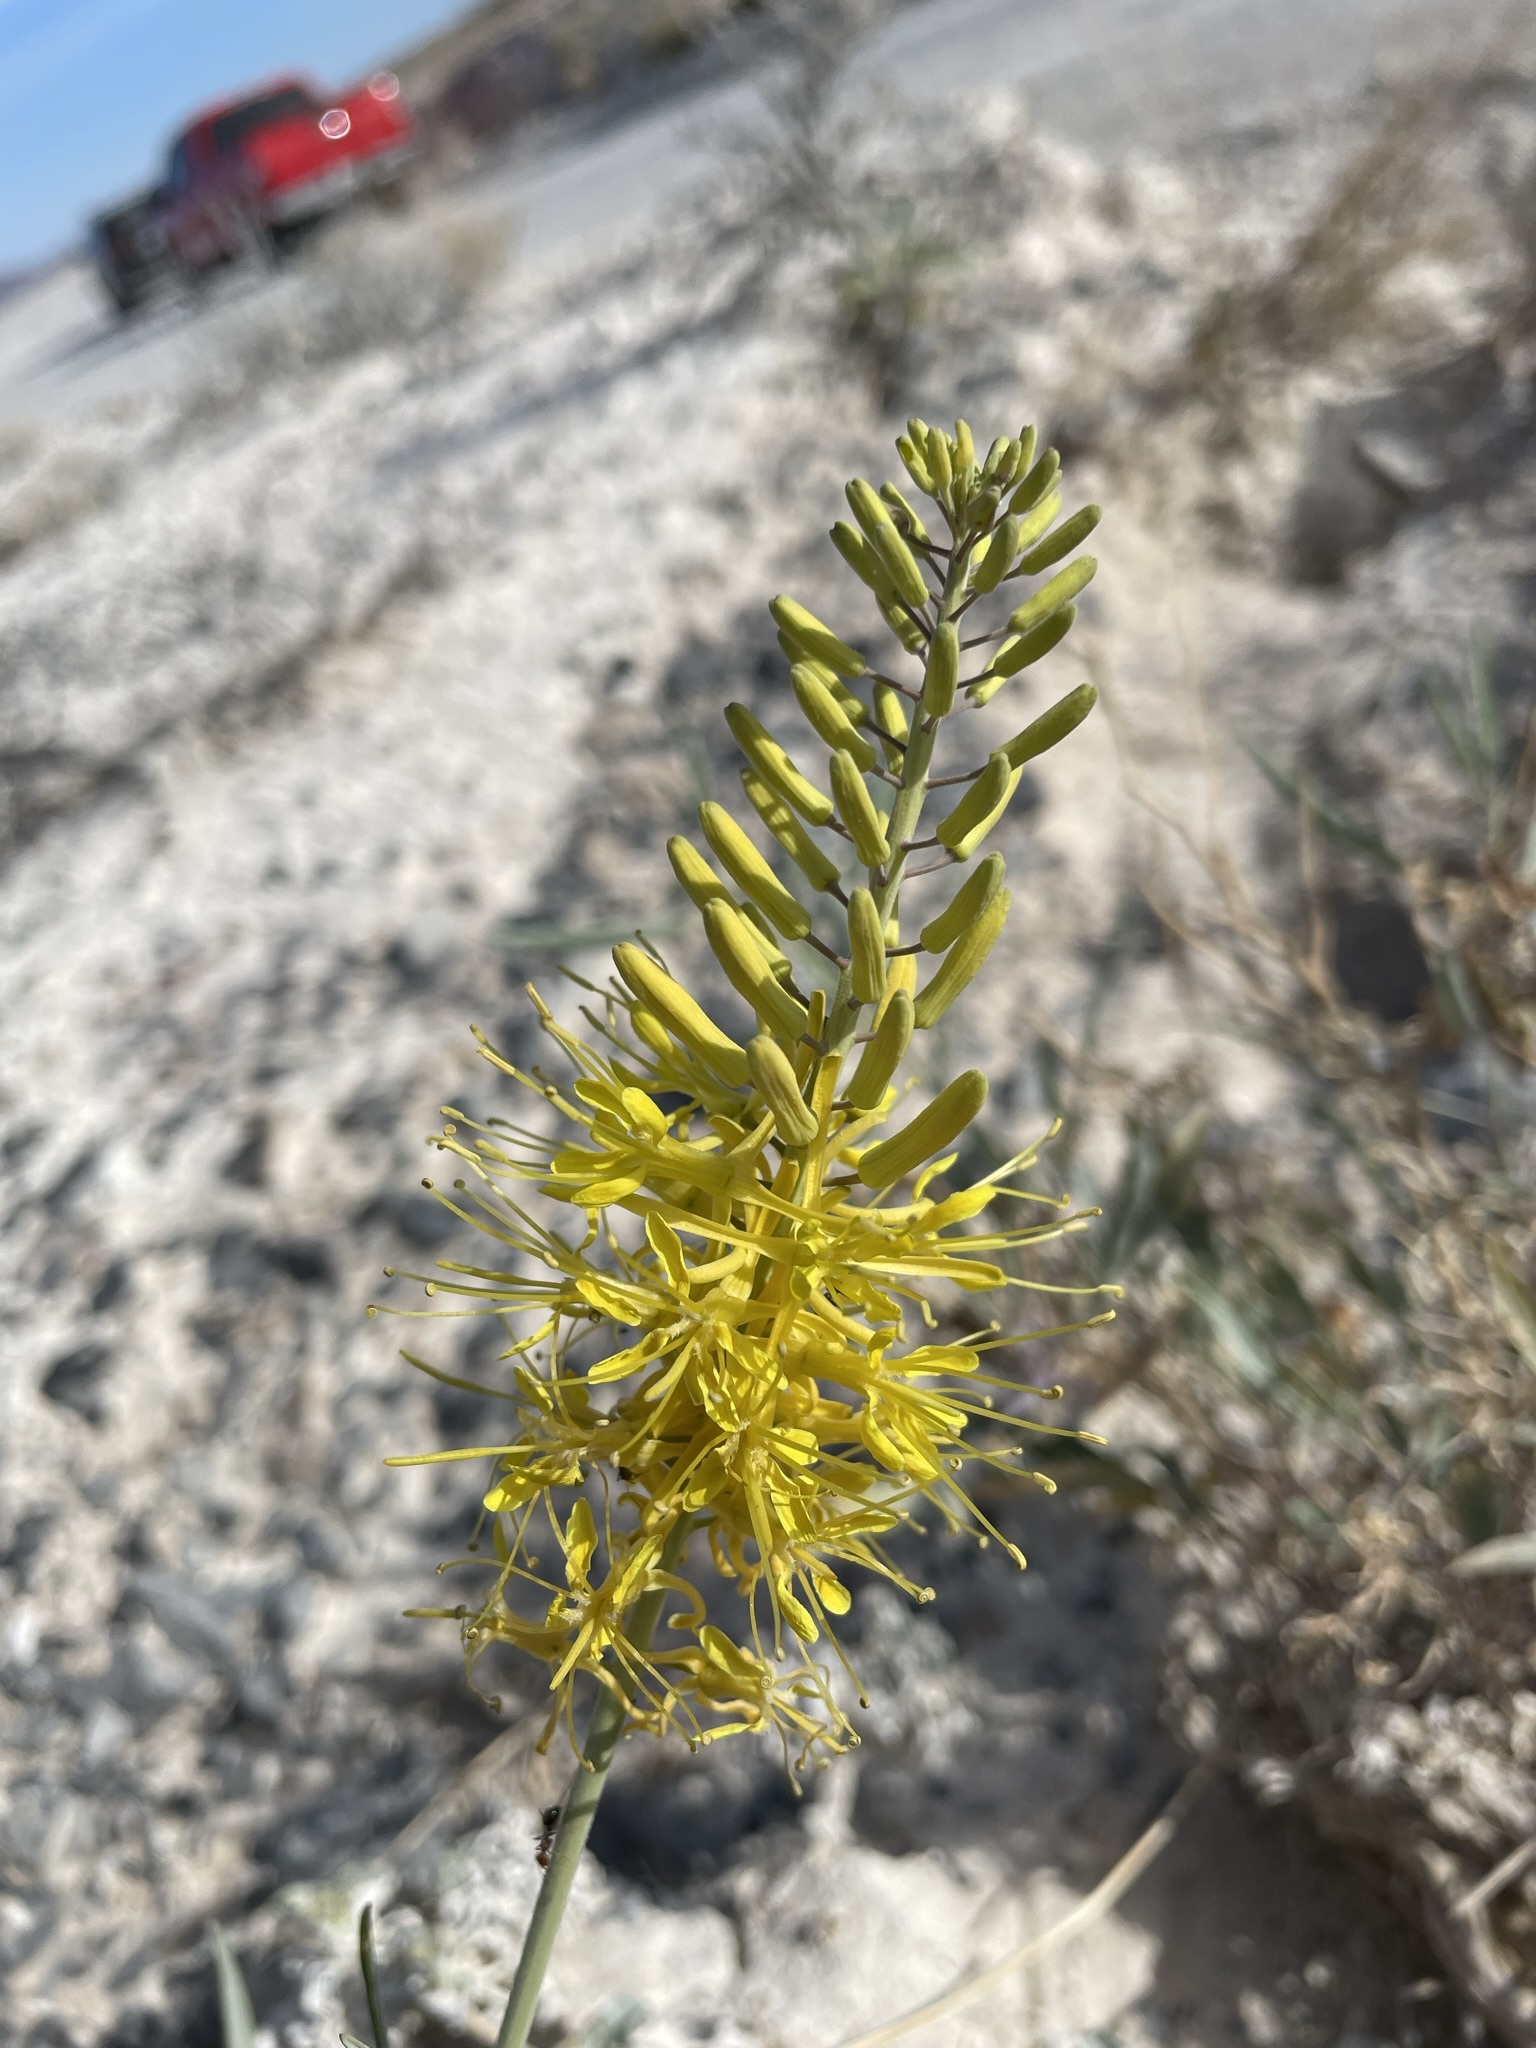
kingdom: Plantae
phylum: Tracheophyta
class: Magnoliopsida
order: Brassicales
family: Brassicaceae
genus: Stanleya
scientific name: Stanleya pinnata
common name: Prince's-plume
